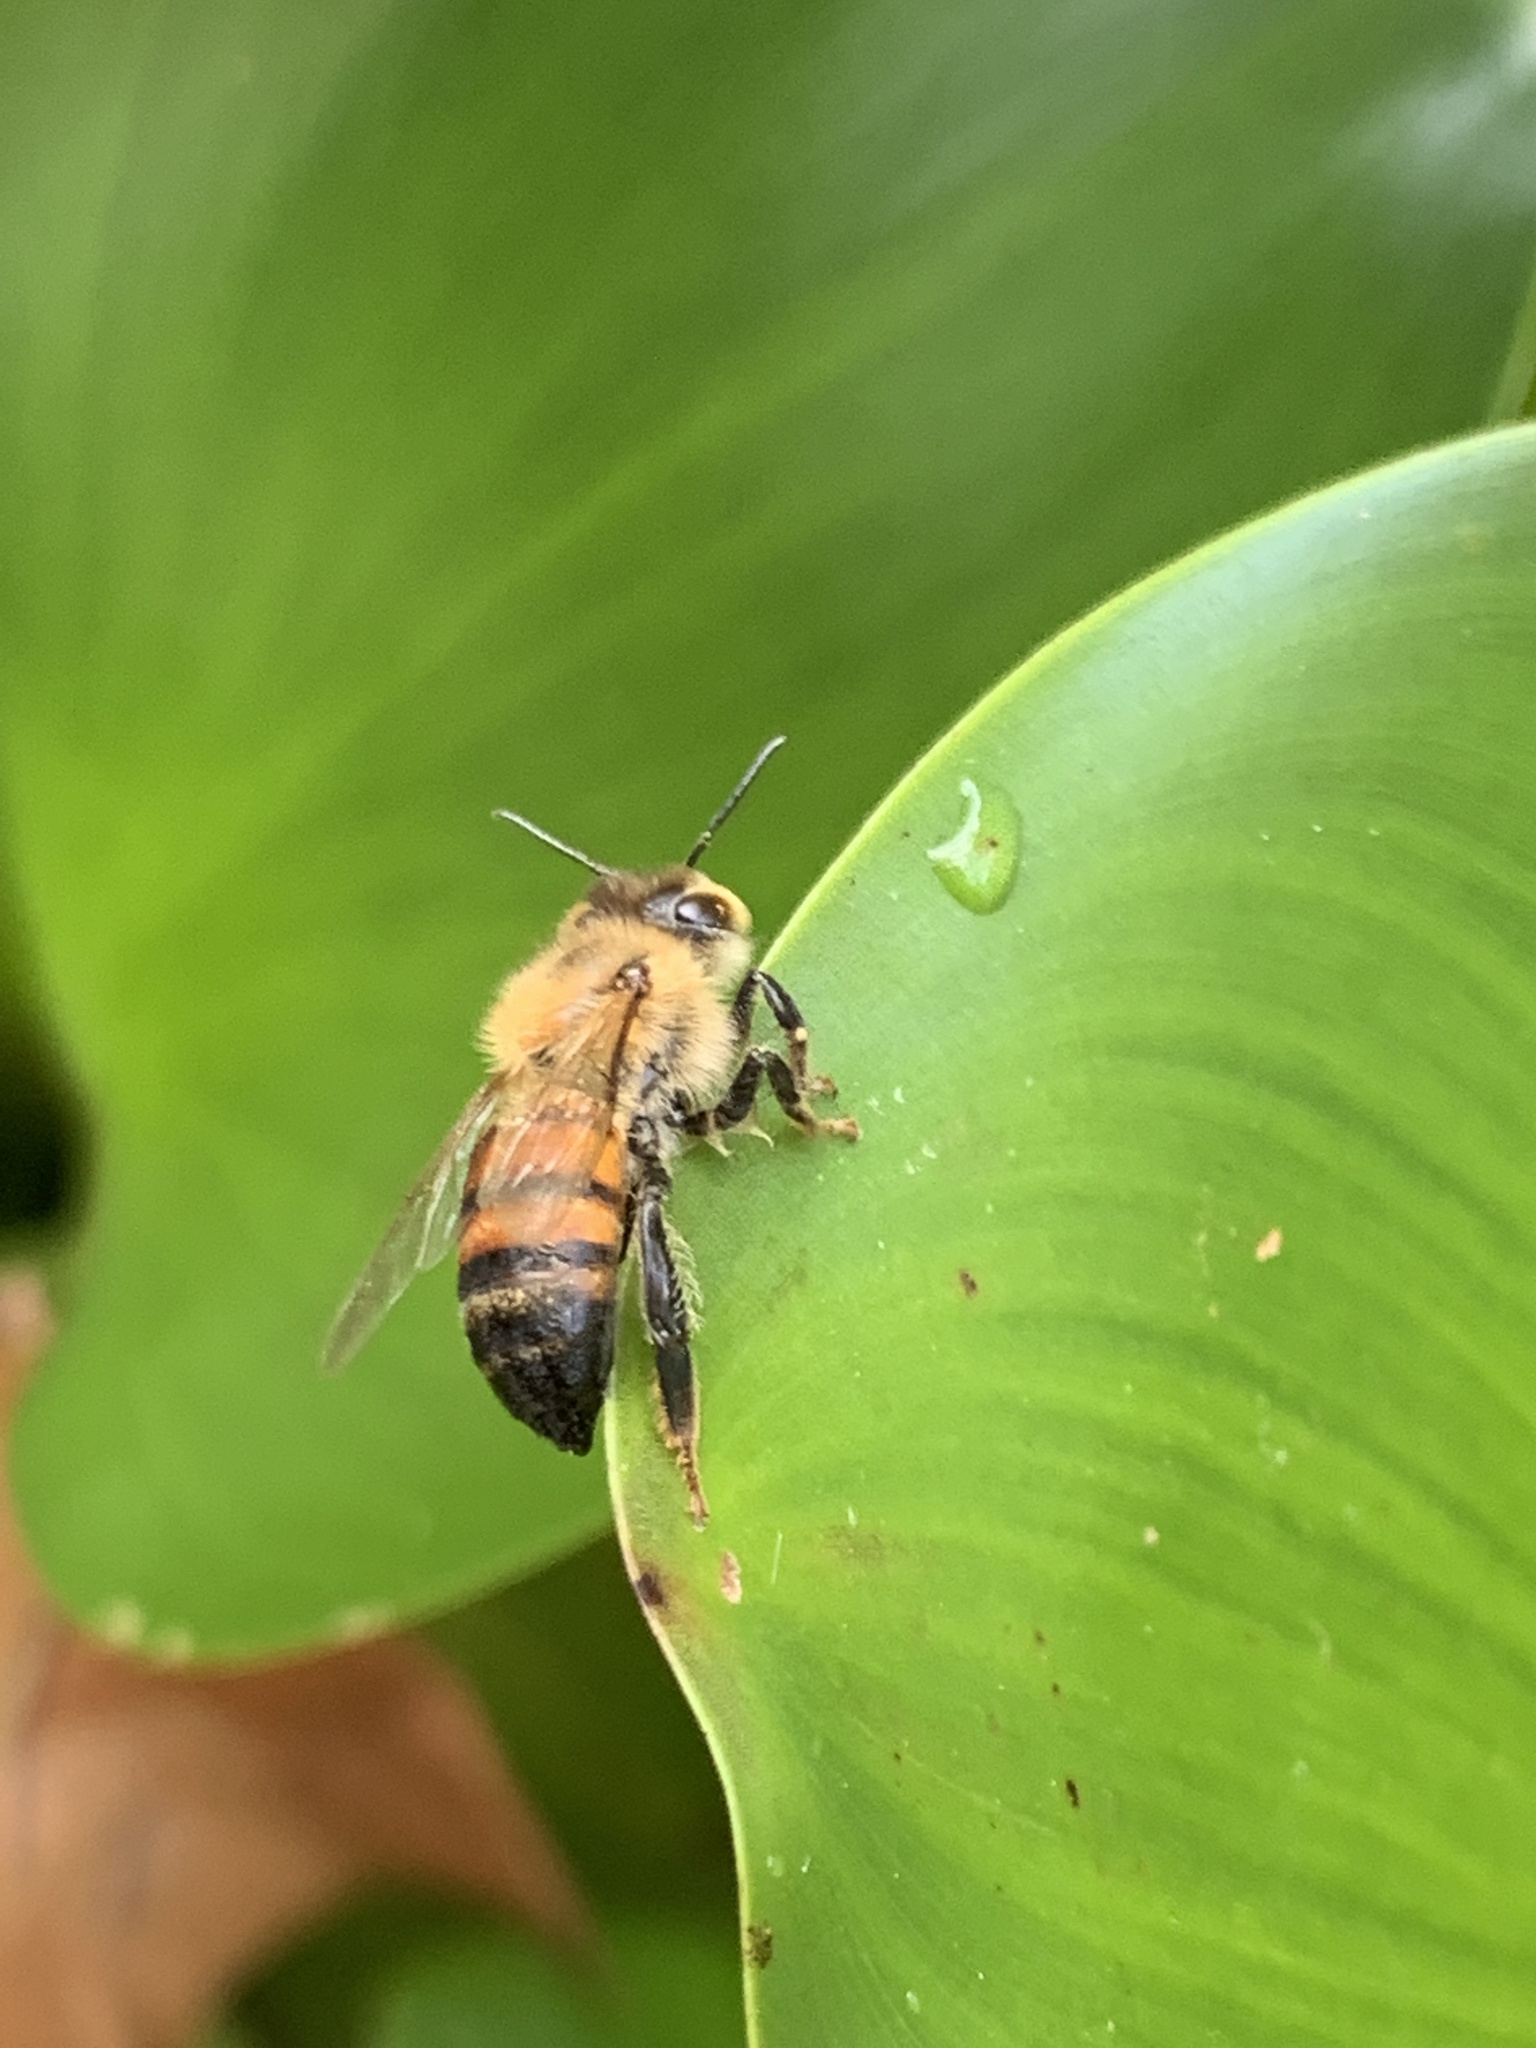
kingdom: Animalia
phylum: Arthropoda
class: Insecta
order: Hymenoptera
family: Apidae
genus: Apis
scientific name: Apis mellifera
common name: Honey bee
